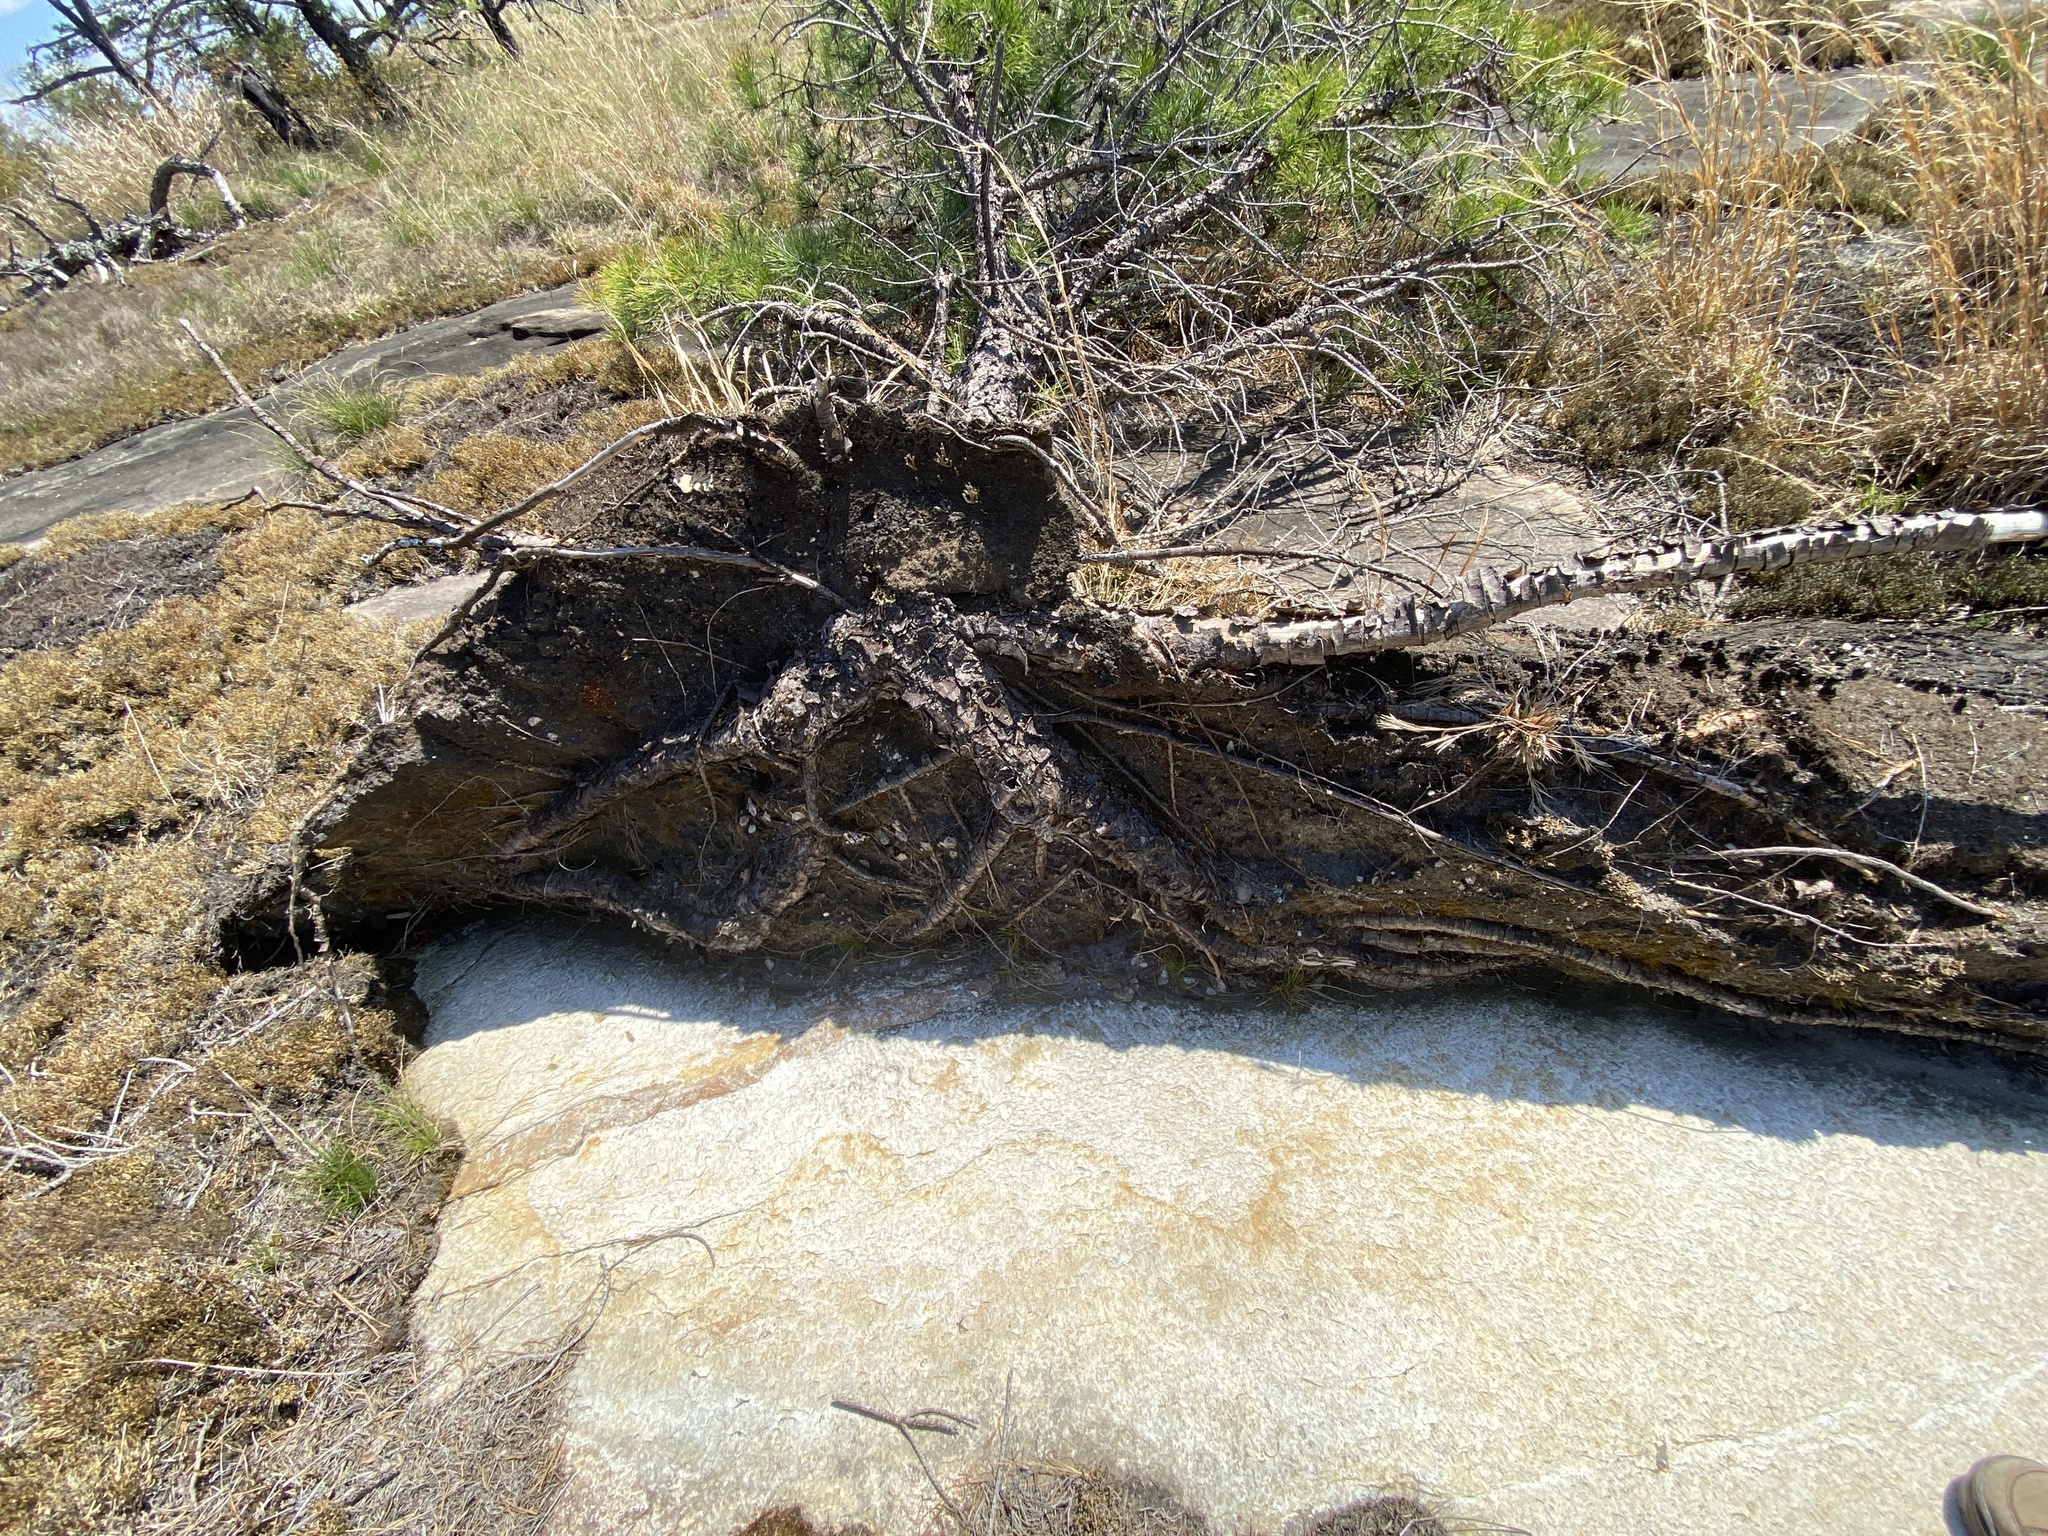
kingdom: Plantae
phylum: Tracheophyta
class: Pinopsida
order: Pinales
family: Pinaceae
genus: Pinus
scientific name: Pinus rigida
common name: Pitch pine
